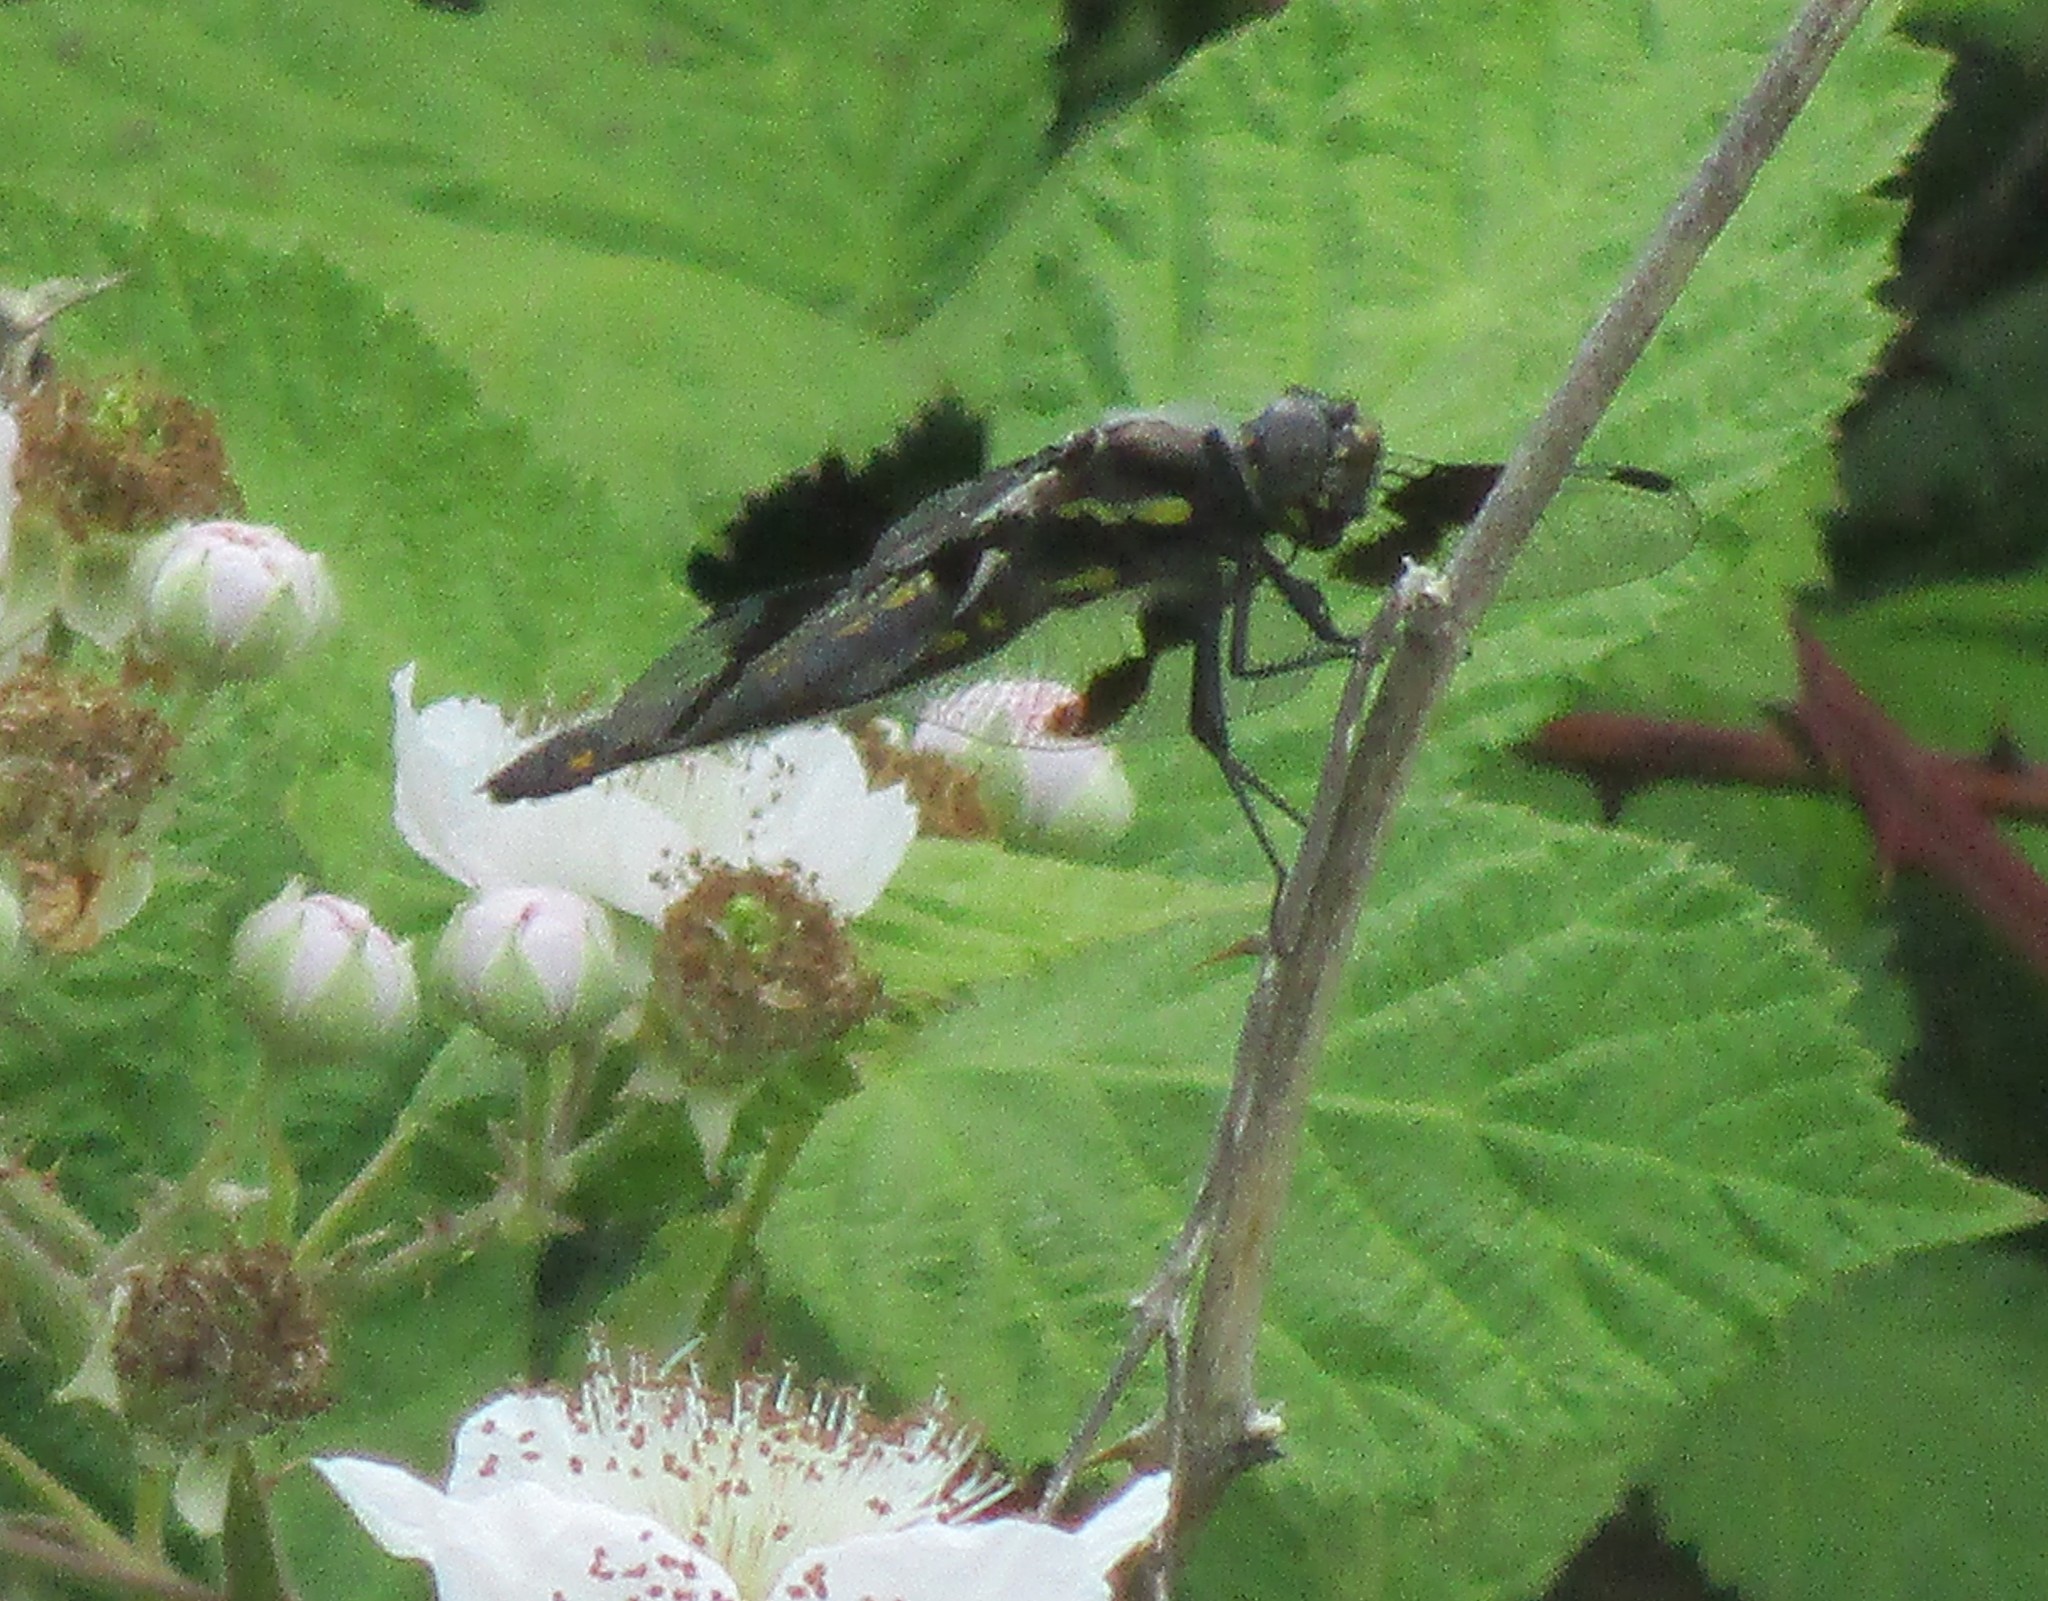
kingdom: Animalia
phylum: Arthropoda
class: Insecta
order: Odonata
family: Libellulidae
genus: Libellula
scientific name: Libellula forensis
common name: Eight-spotted skimmer
